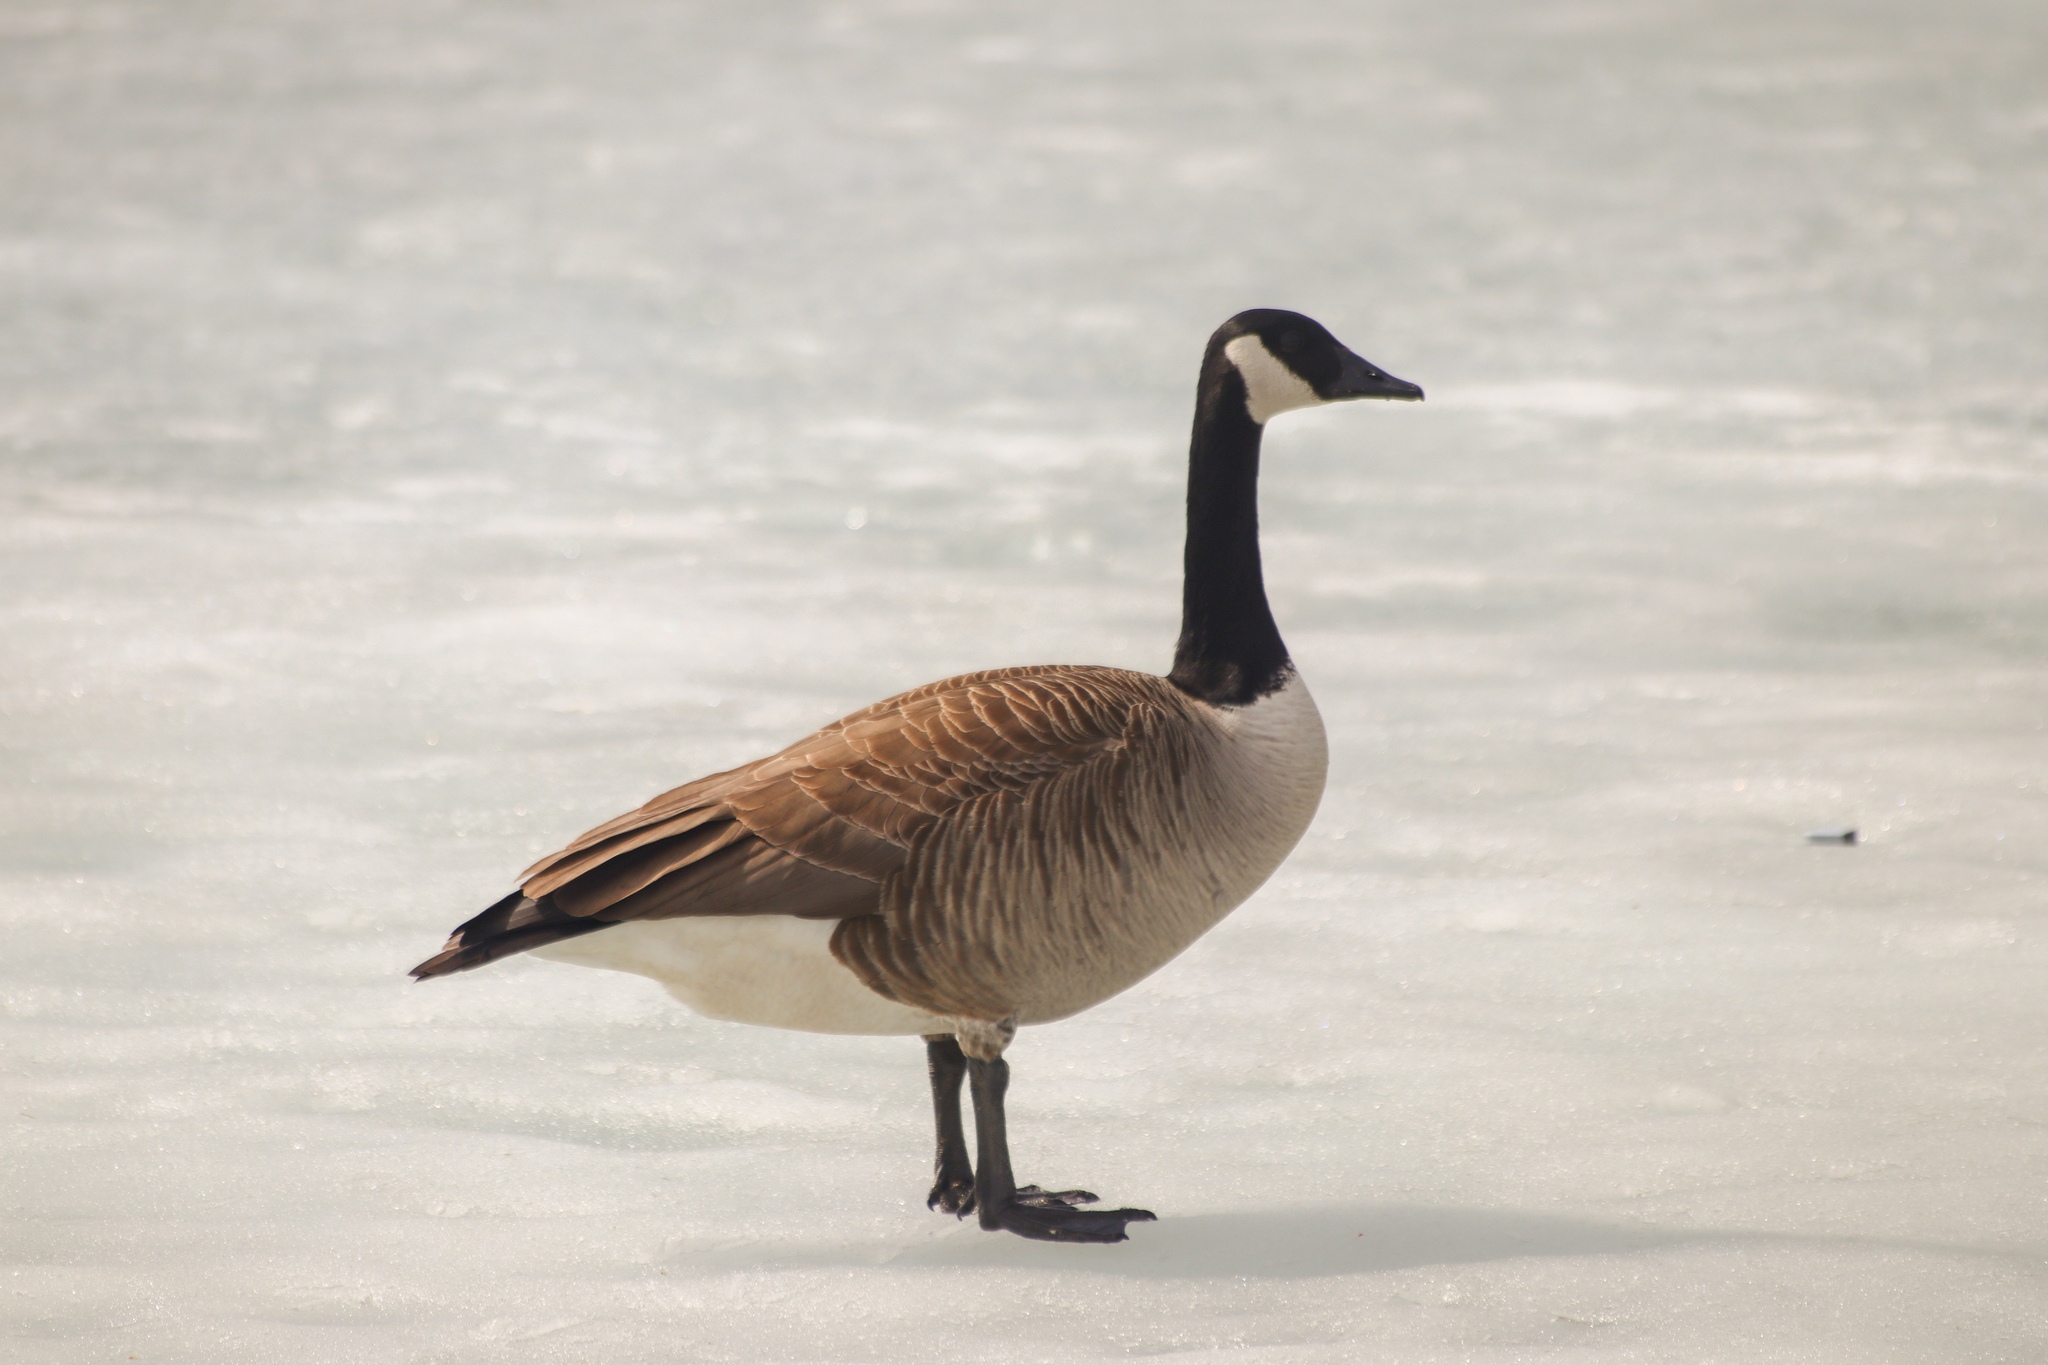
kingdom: Animalia
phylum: Chordata
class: Aves
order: Anseriformes
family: Anatidae
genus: Branta
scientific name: Branta canadensis
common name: Canada goose
